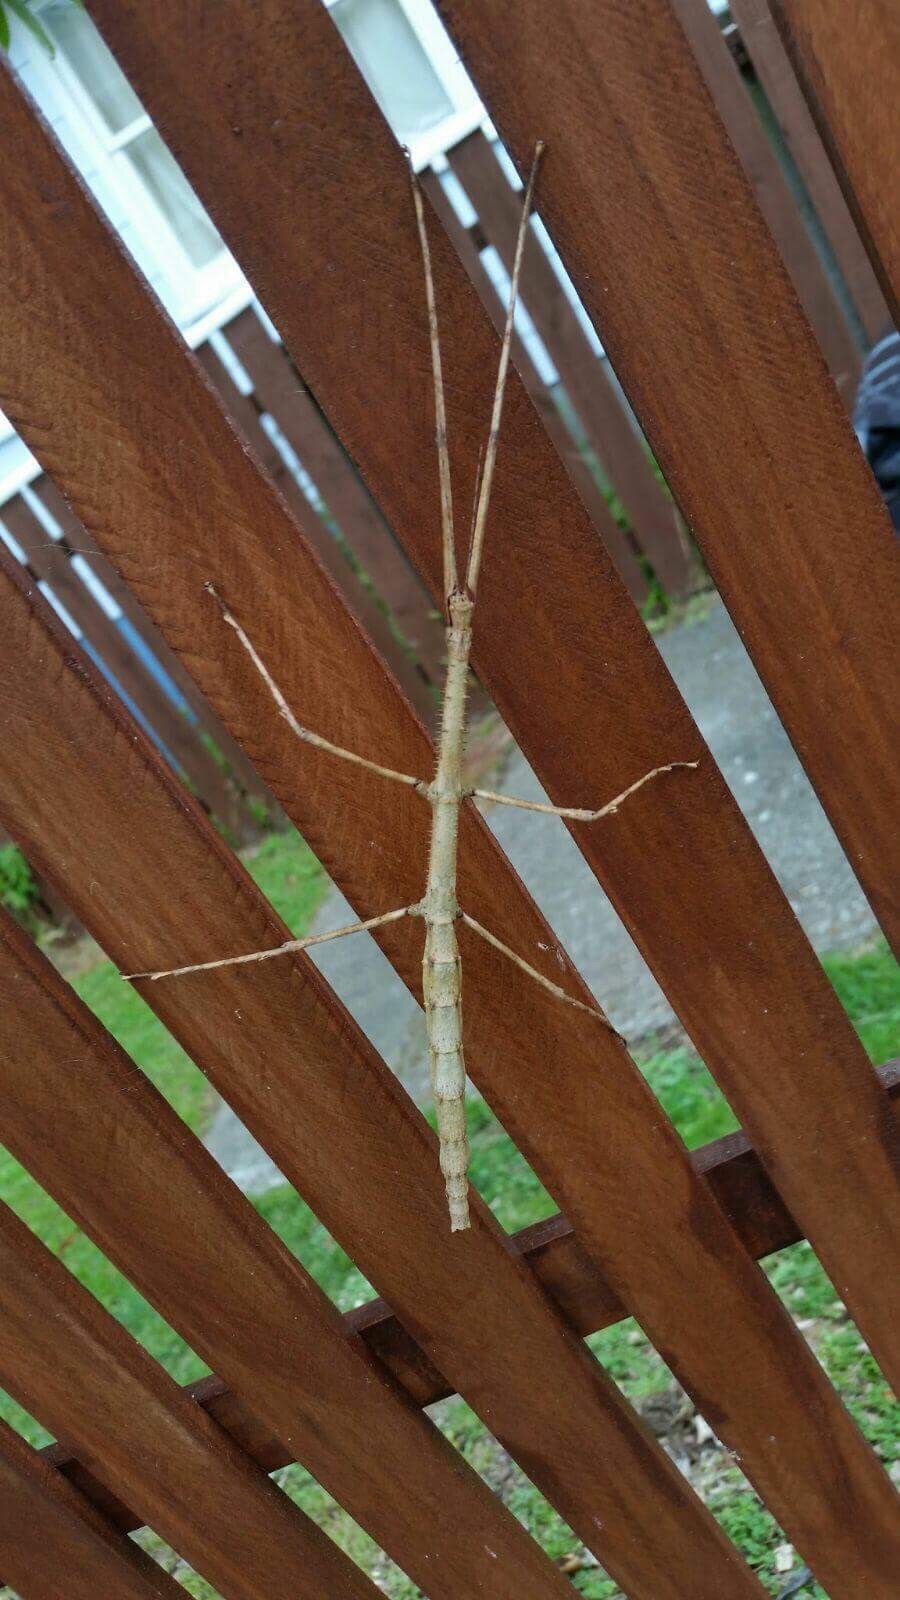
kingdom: Animalia
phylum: Arthropoda
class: Insecta
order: Phasmida
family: Phasmatidae
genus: Argosarchus
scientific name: Argosarchus horridus
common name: Bristly stick insect
